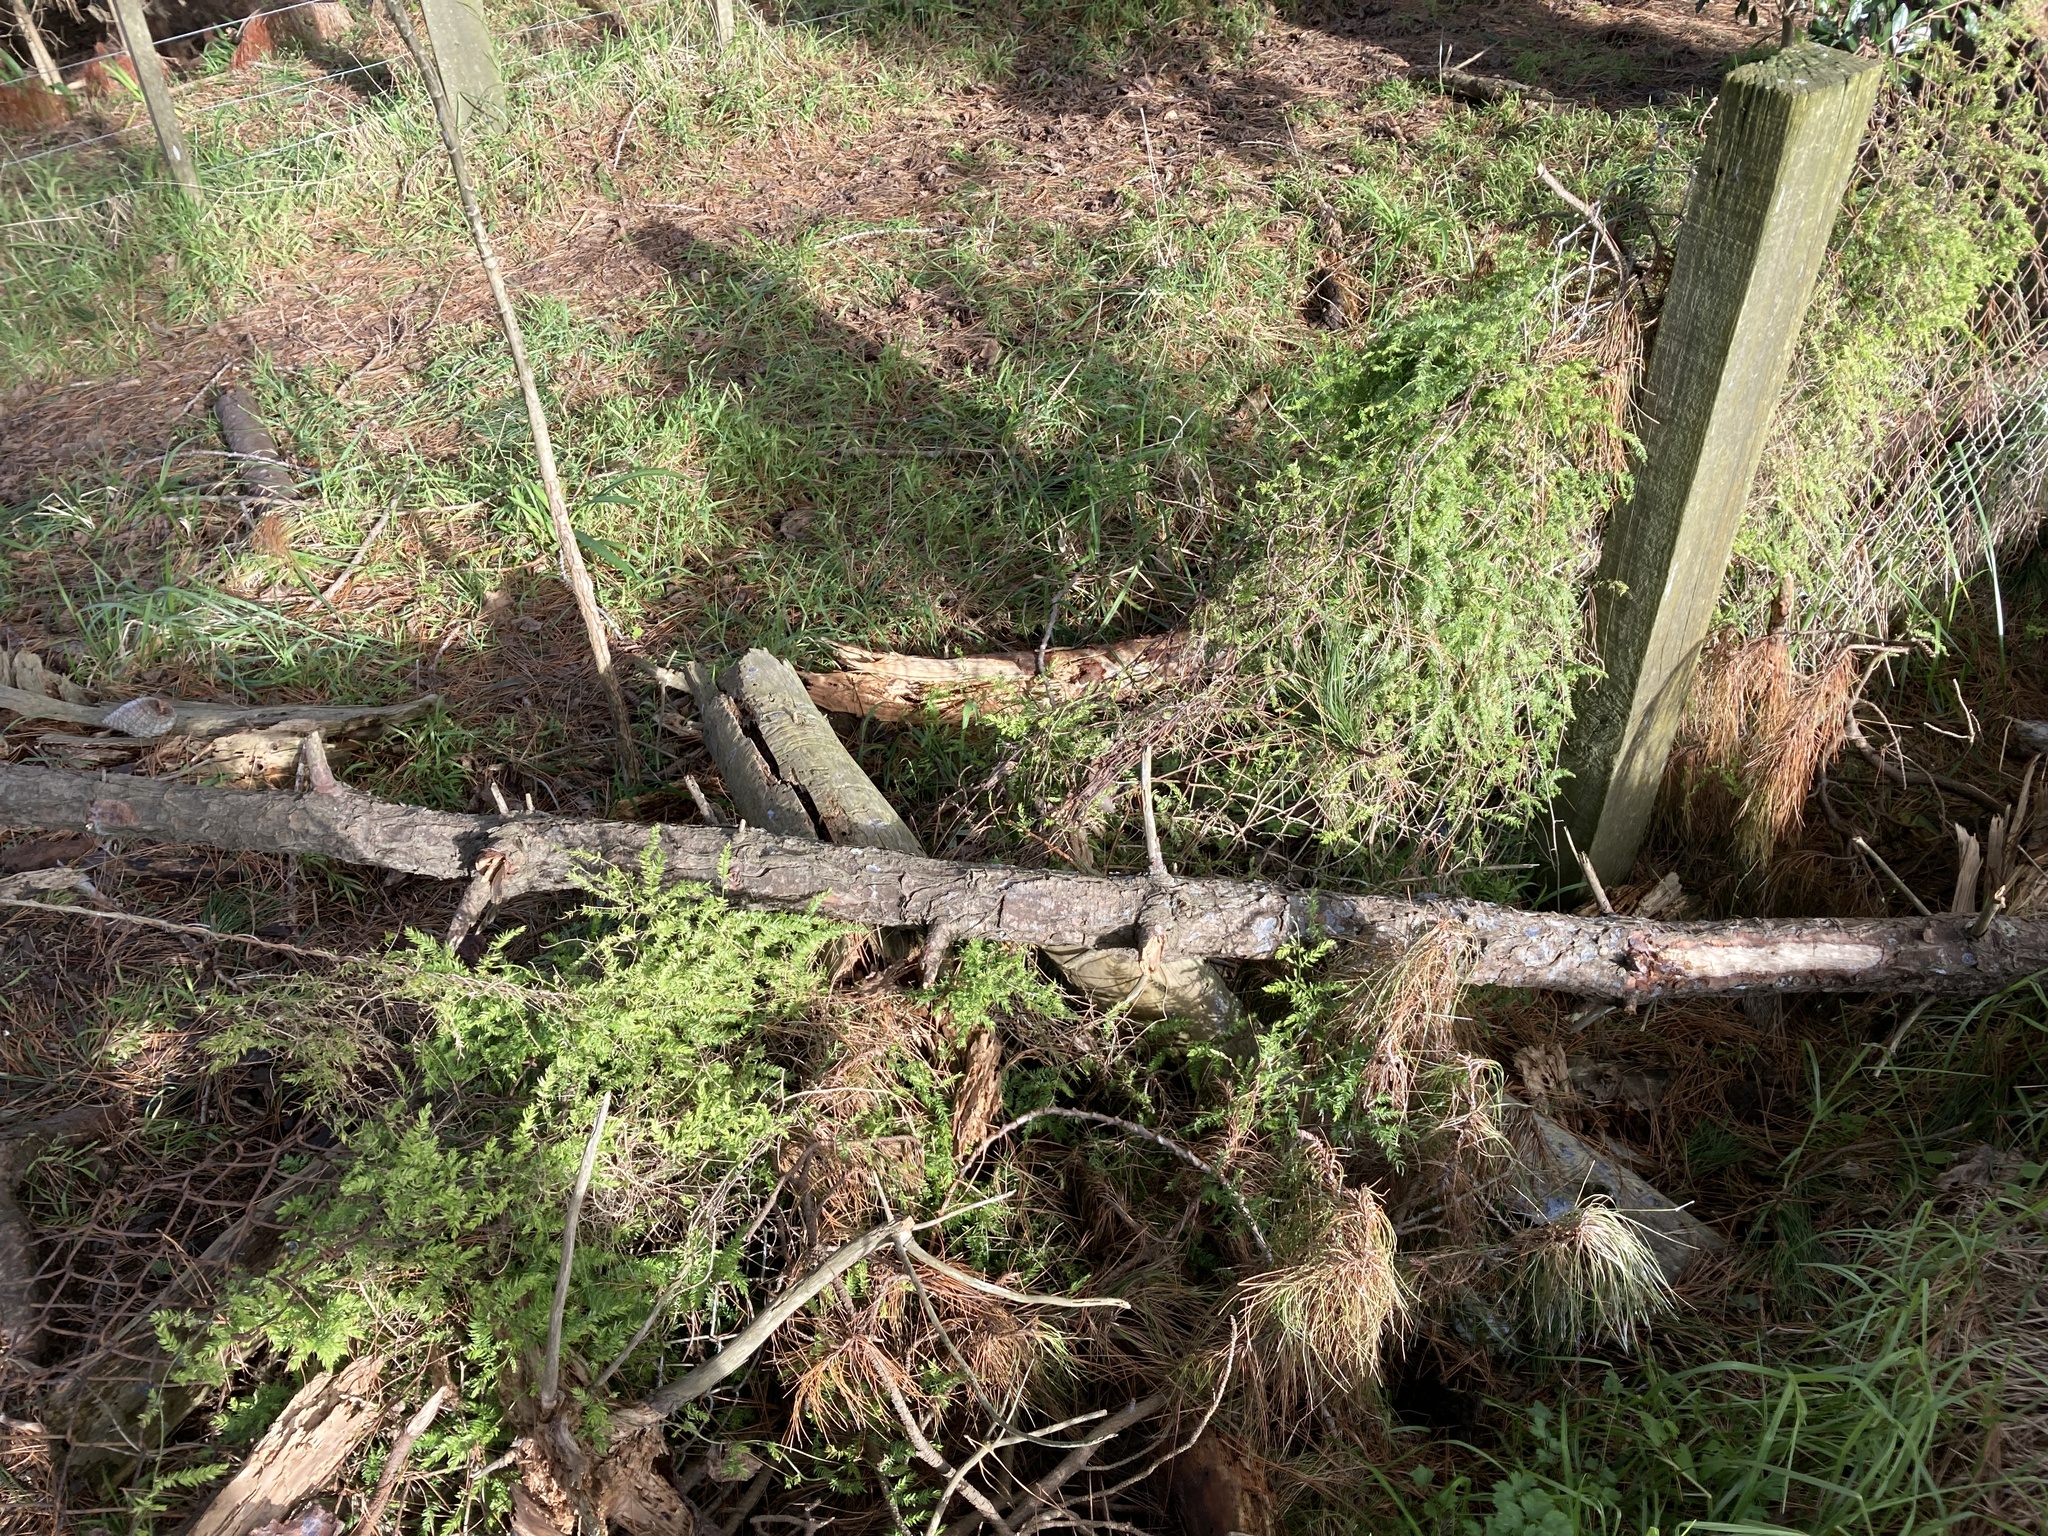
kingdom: Plantae
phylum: Tracheophyta
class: Liliopsida
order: Asparagales
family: Asparagaceae
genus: Asparagus
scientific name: Asparagus scandens
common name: Asparagus-fern
